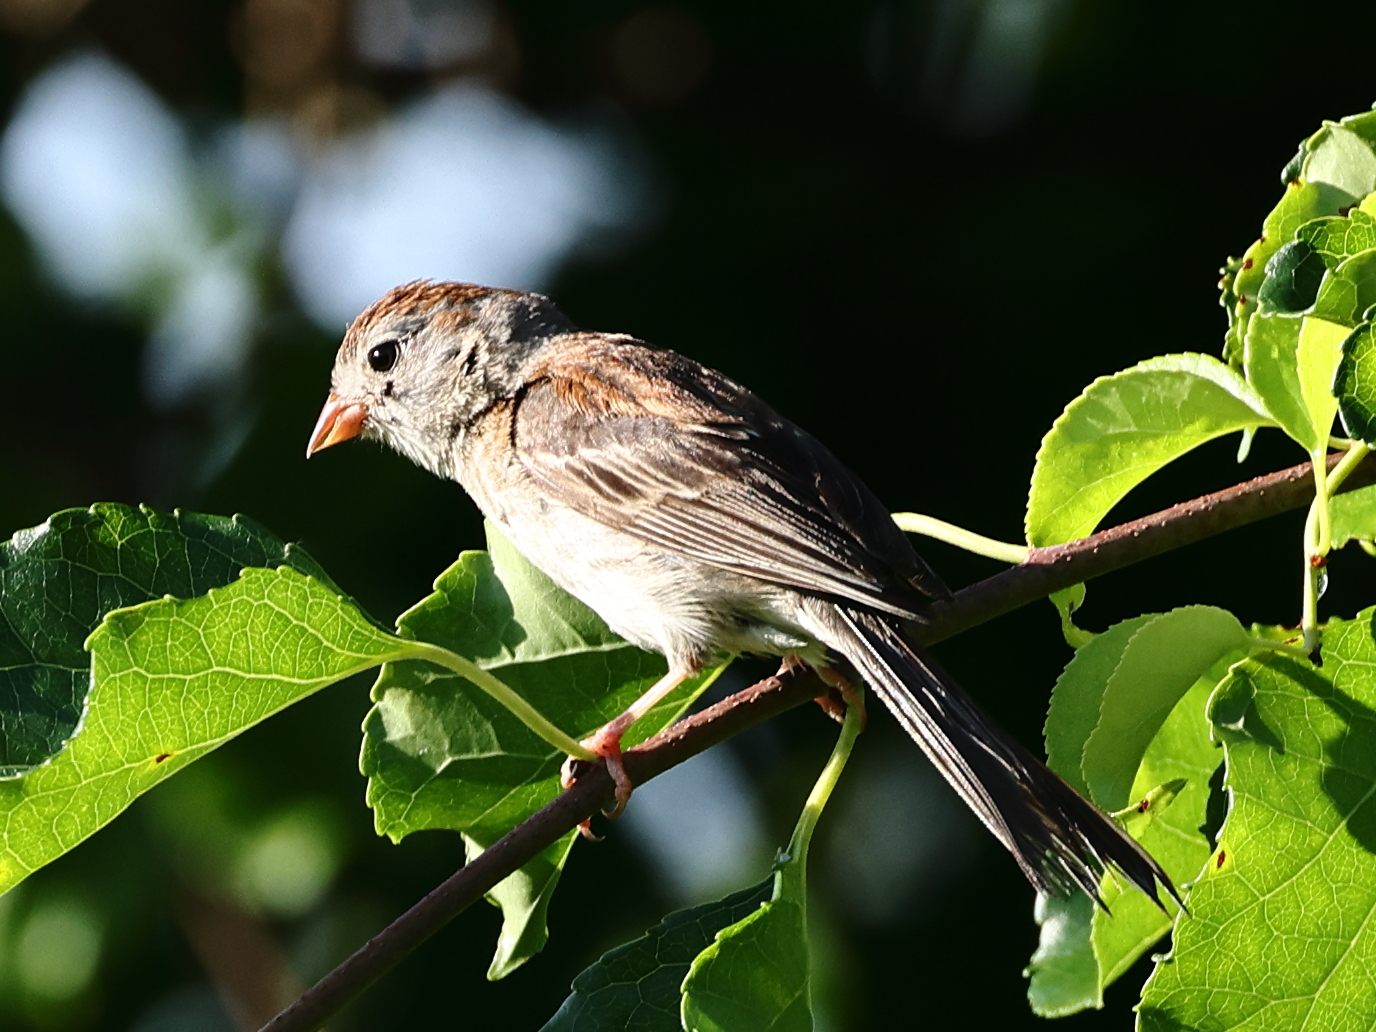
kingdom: Animalia
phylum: Chordata
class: Aves
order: Passeriformes
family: Passerellidae
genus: Spizella
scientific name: Spizella pusilla
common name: Field sparrow
